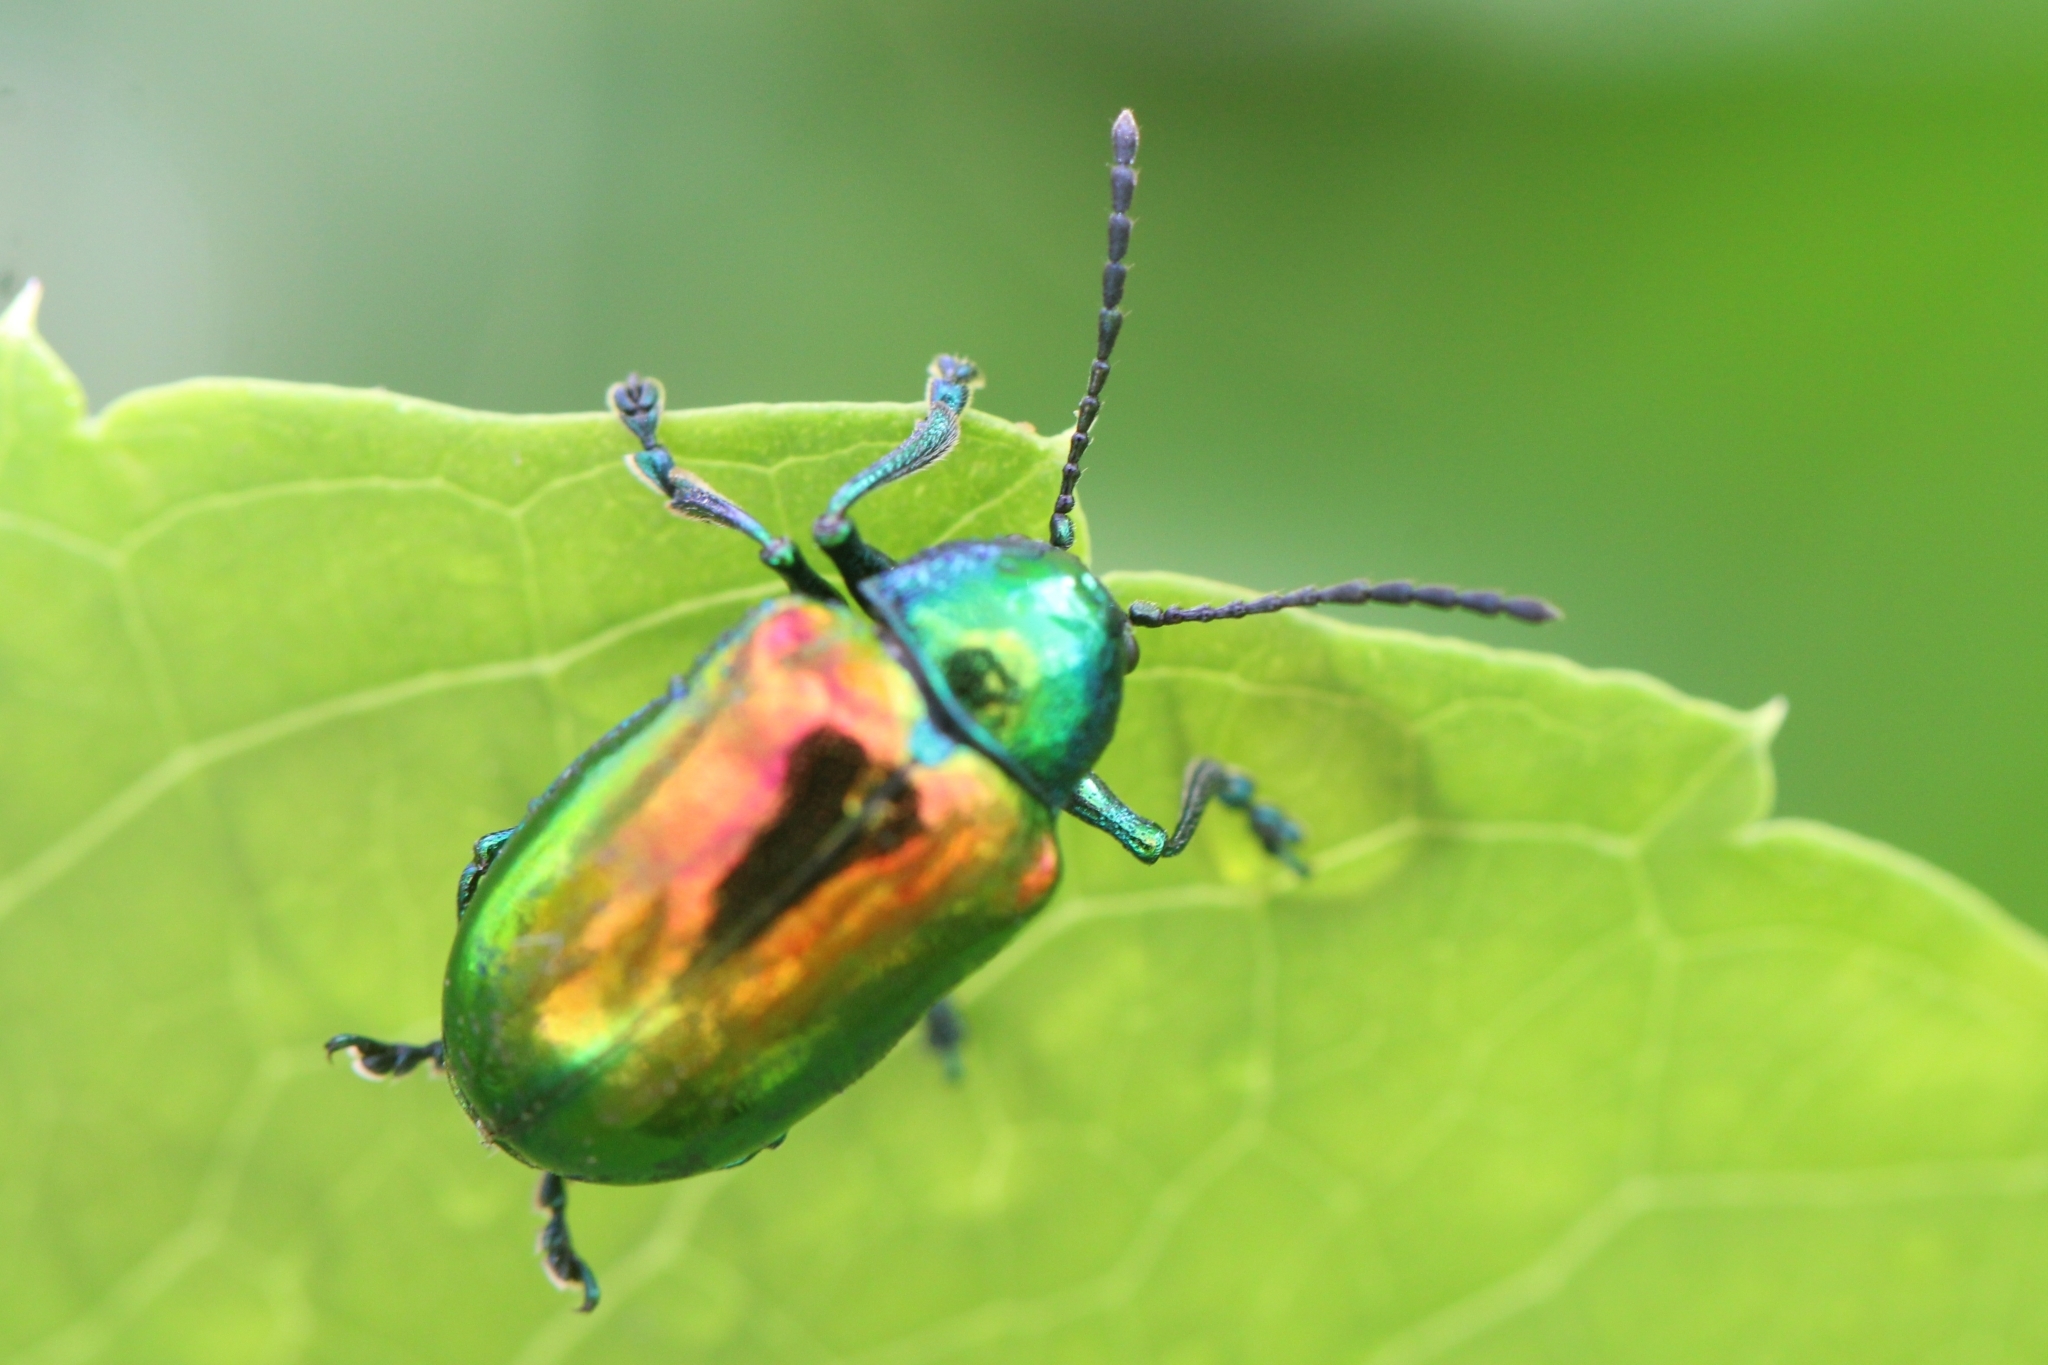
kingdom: Animalia
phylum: Arthropoda
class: Insecta
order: Coleoptera
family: Chrysomelidae
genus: Chrysochus
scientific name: Chrysochus auratus
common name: Dogbane leaf beetle
